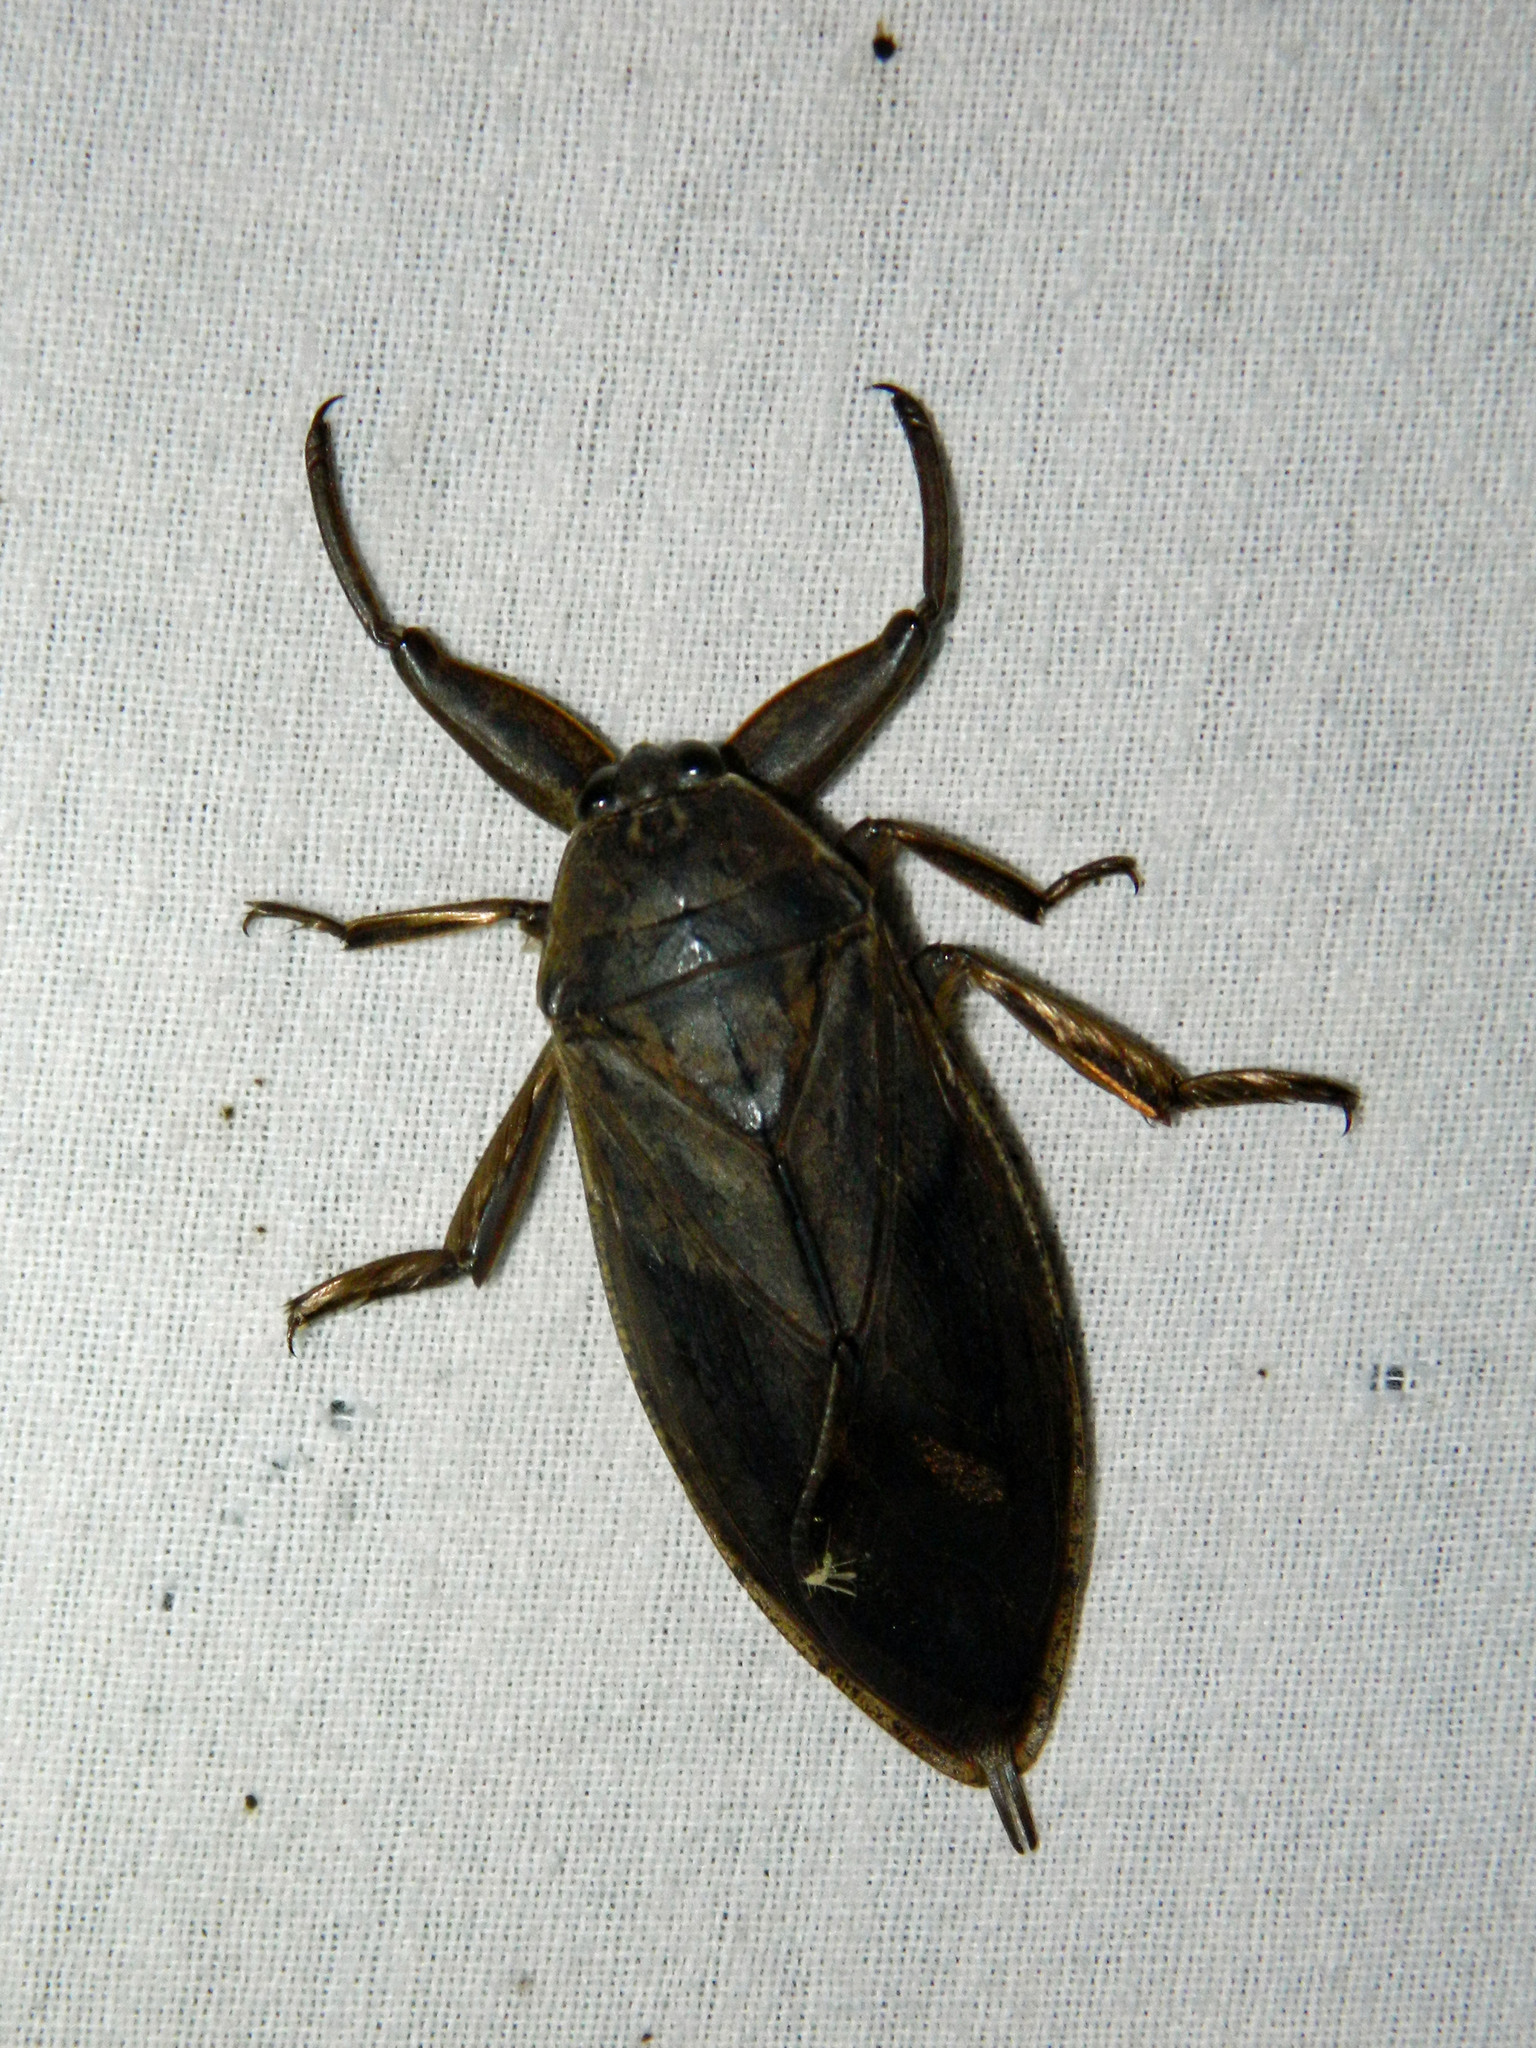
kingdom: Animalia
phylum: Arthropoda
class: Insecta
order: Hemiptera
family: Belostomatidae
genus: Lethocerus
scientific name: Lethocerus americanus
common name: Giant water bug
